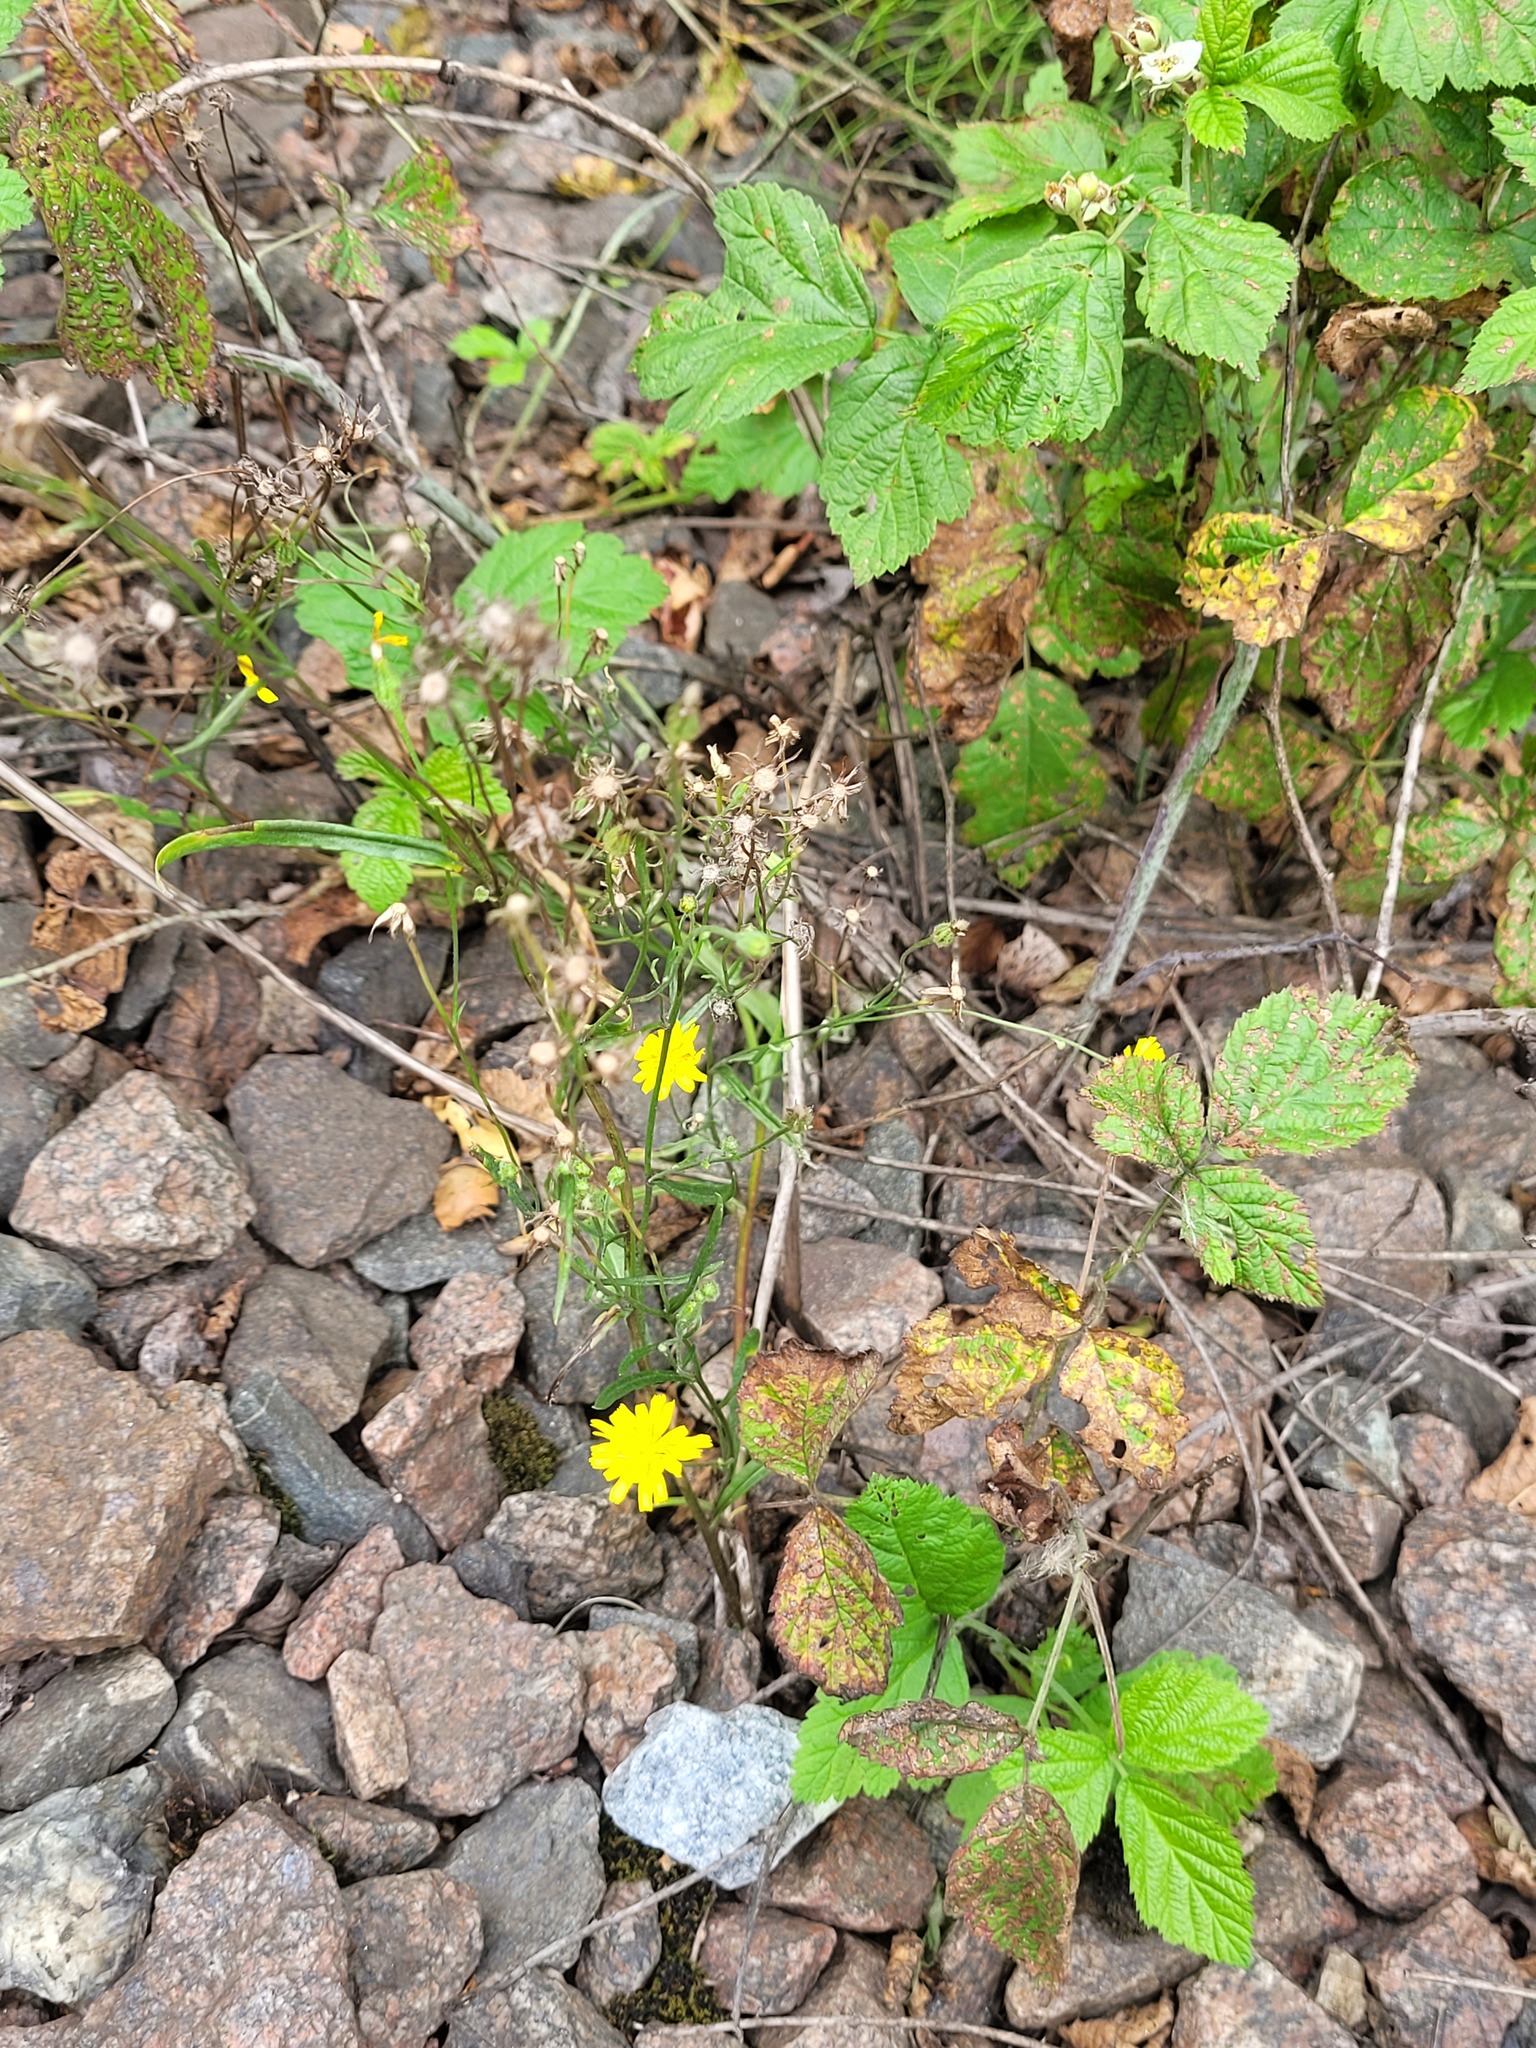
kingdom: Plantae
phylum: Tracheophyta
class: Magnoliopsida
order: Asterales
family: Asteraceae
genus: Crepis
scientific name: Crepis tectorum
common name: Narrow-leaved hawk's-beard
